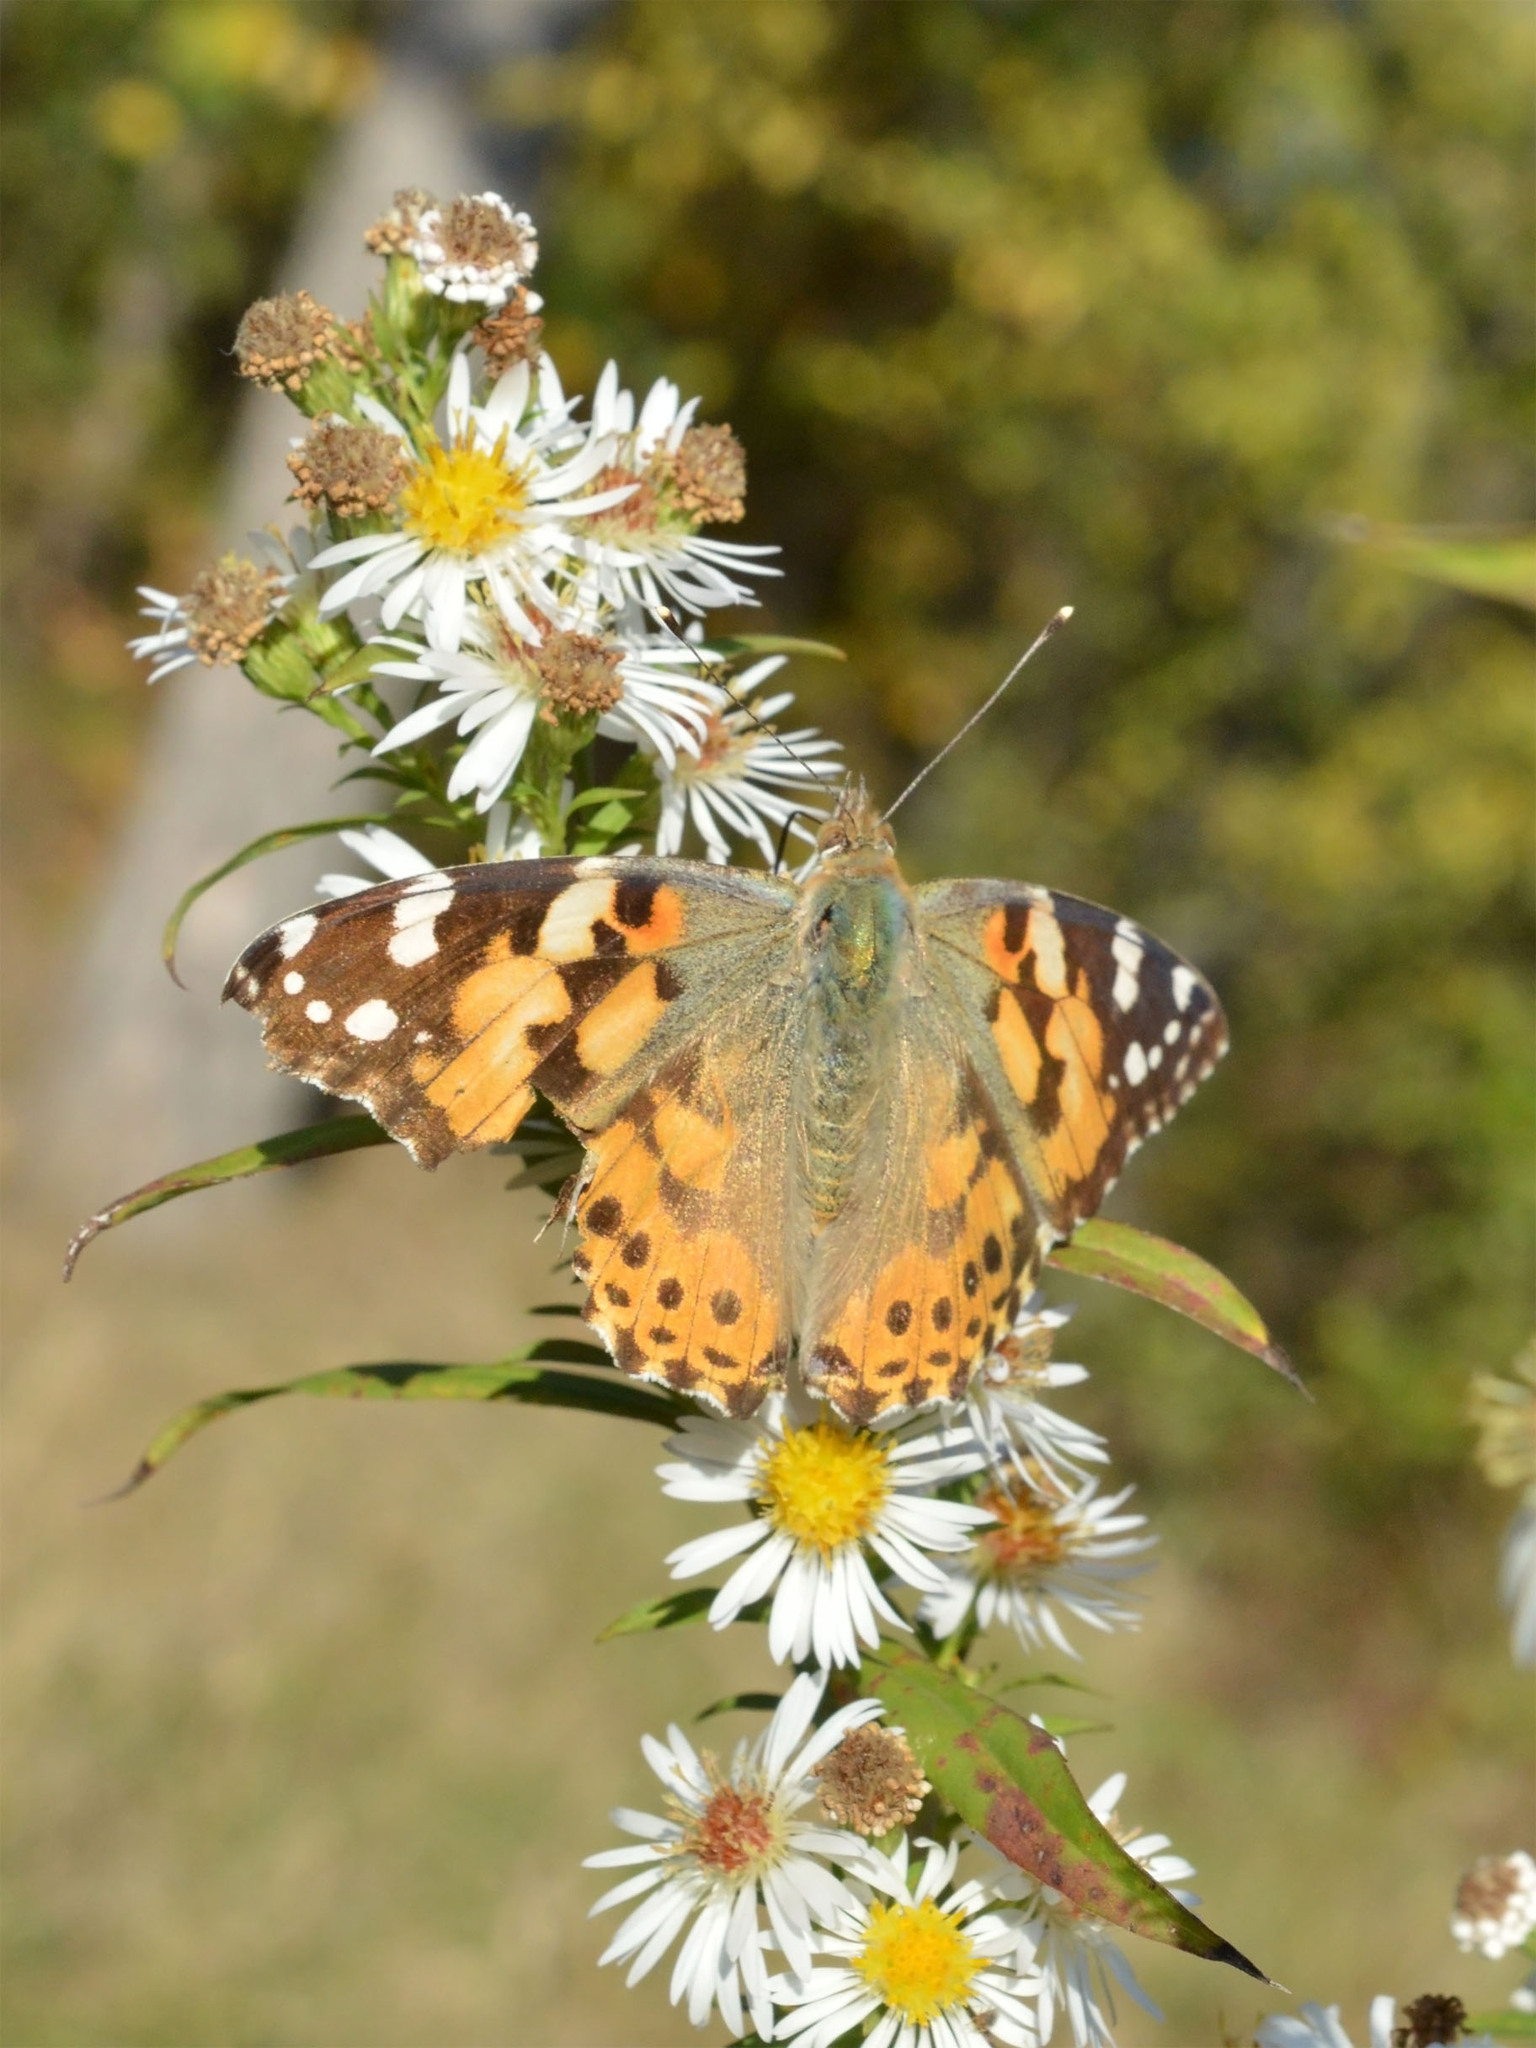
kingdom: Animalia
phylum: Arthropoda
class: Insecta
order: Lepidoptera
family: Nymphalidae
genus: Vanessa
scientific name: Vanessa cardui
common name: Painted lady
